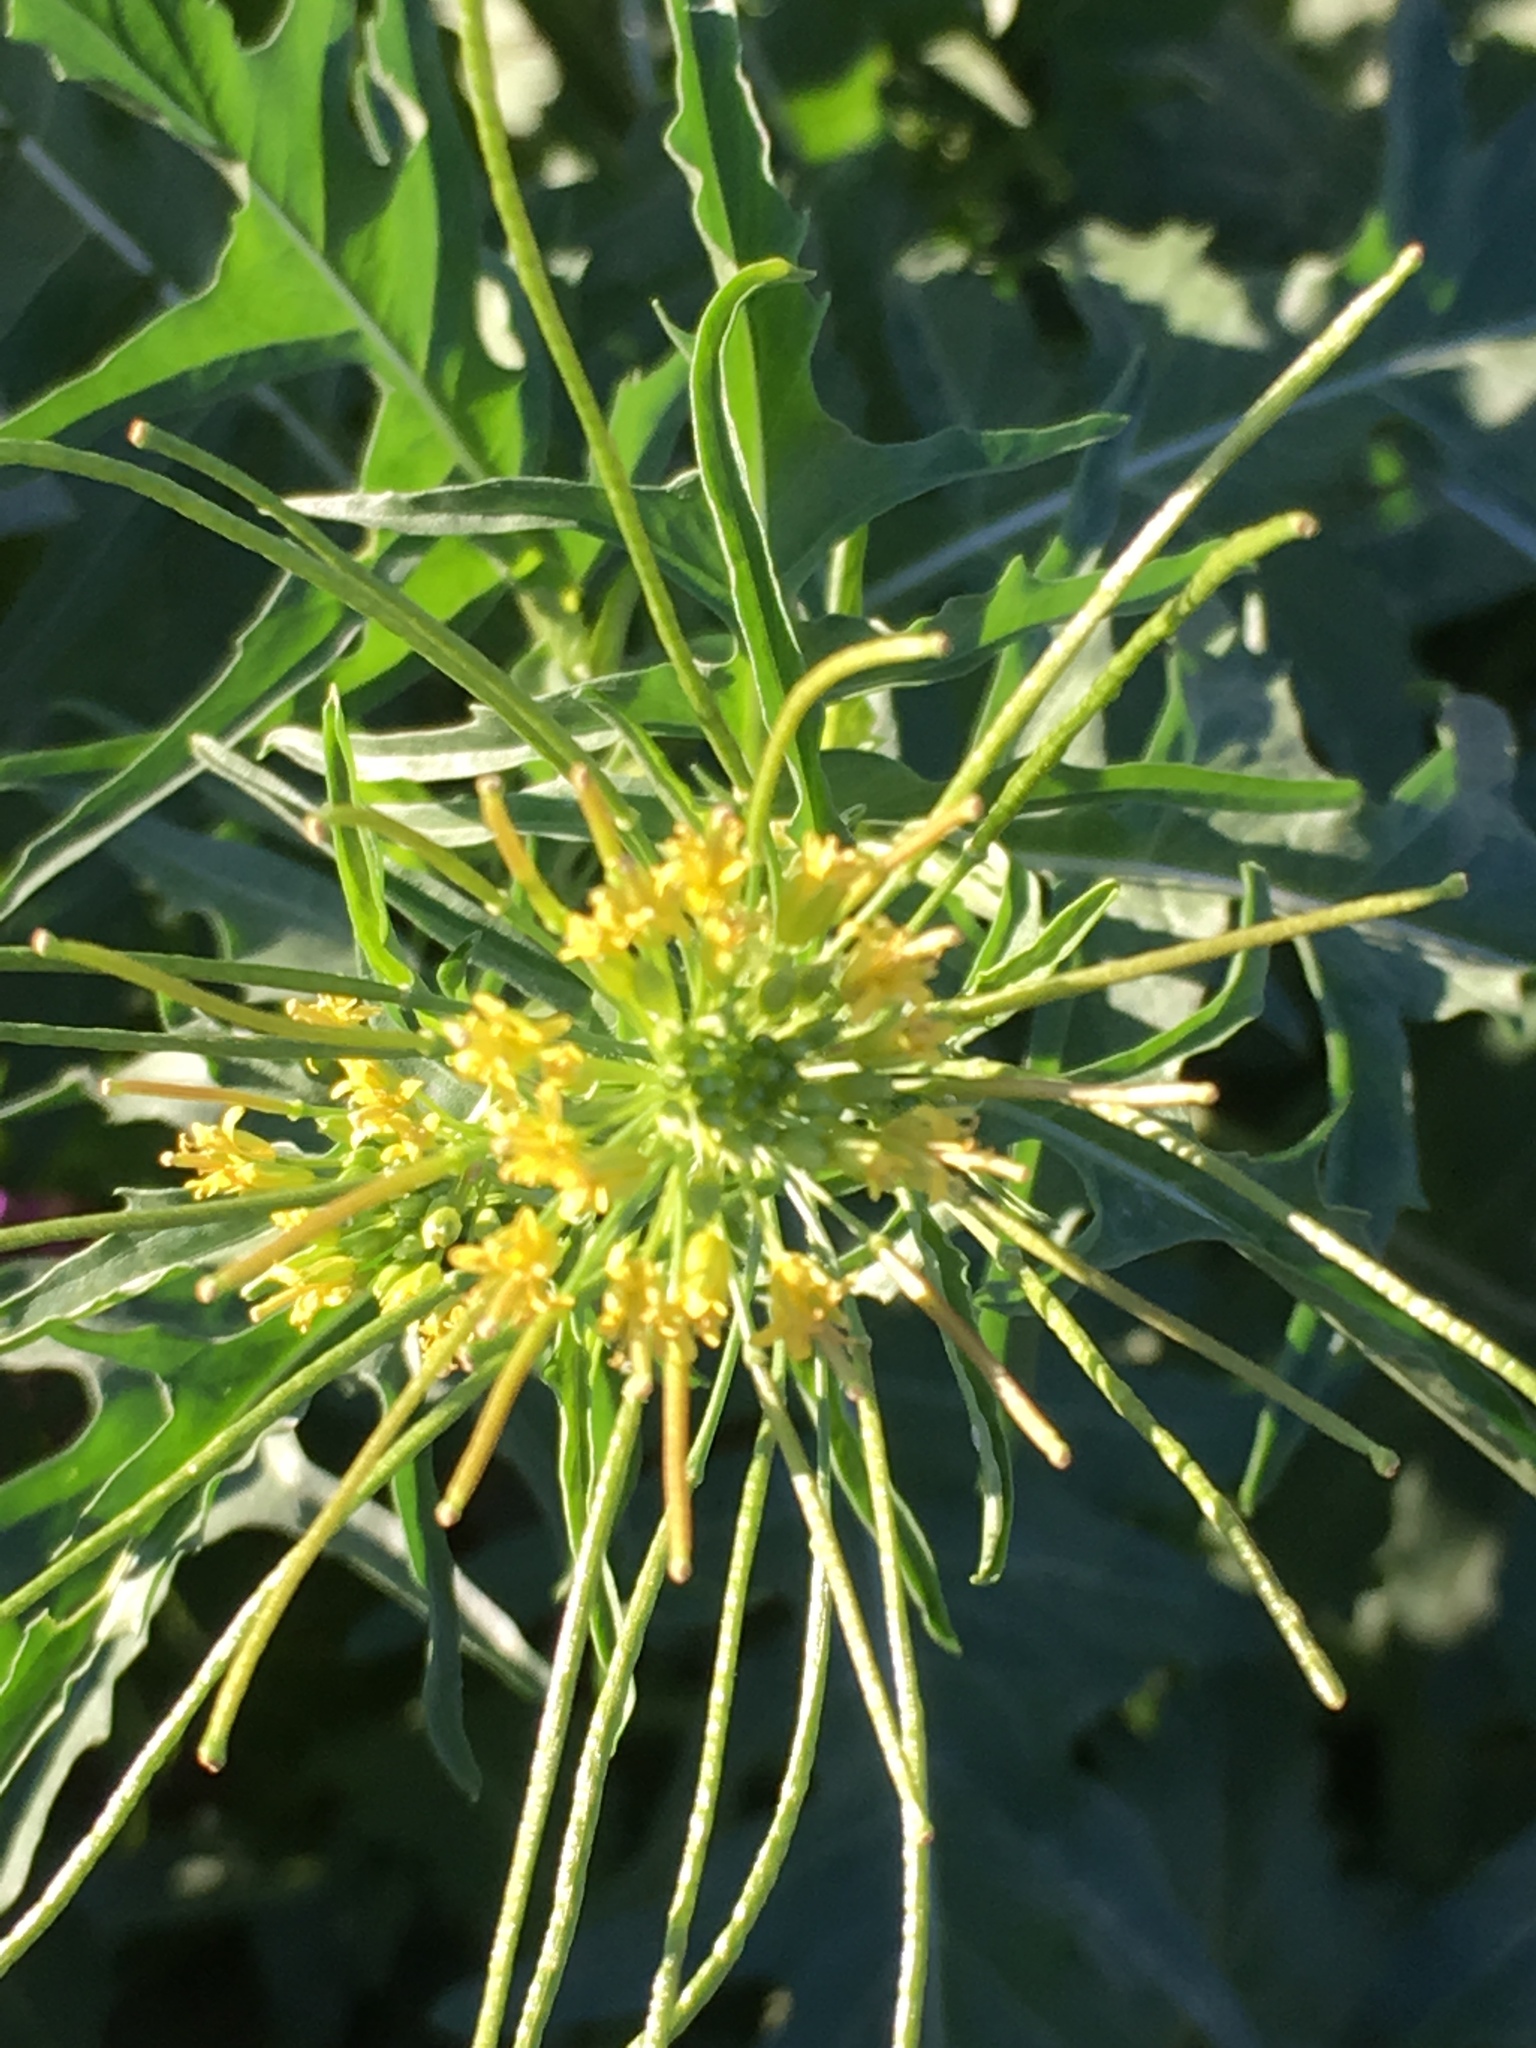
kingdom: Plantae
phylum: Tracheophyta
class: Magnoliopsida
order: Brassicales
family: Brassicaceae
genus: Sisymbrium
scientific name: Sisymbrium irio
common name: London rocket
